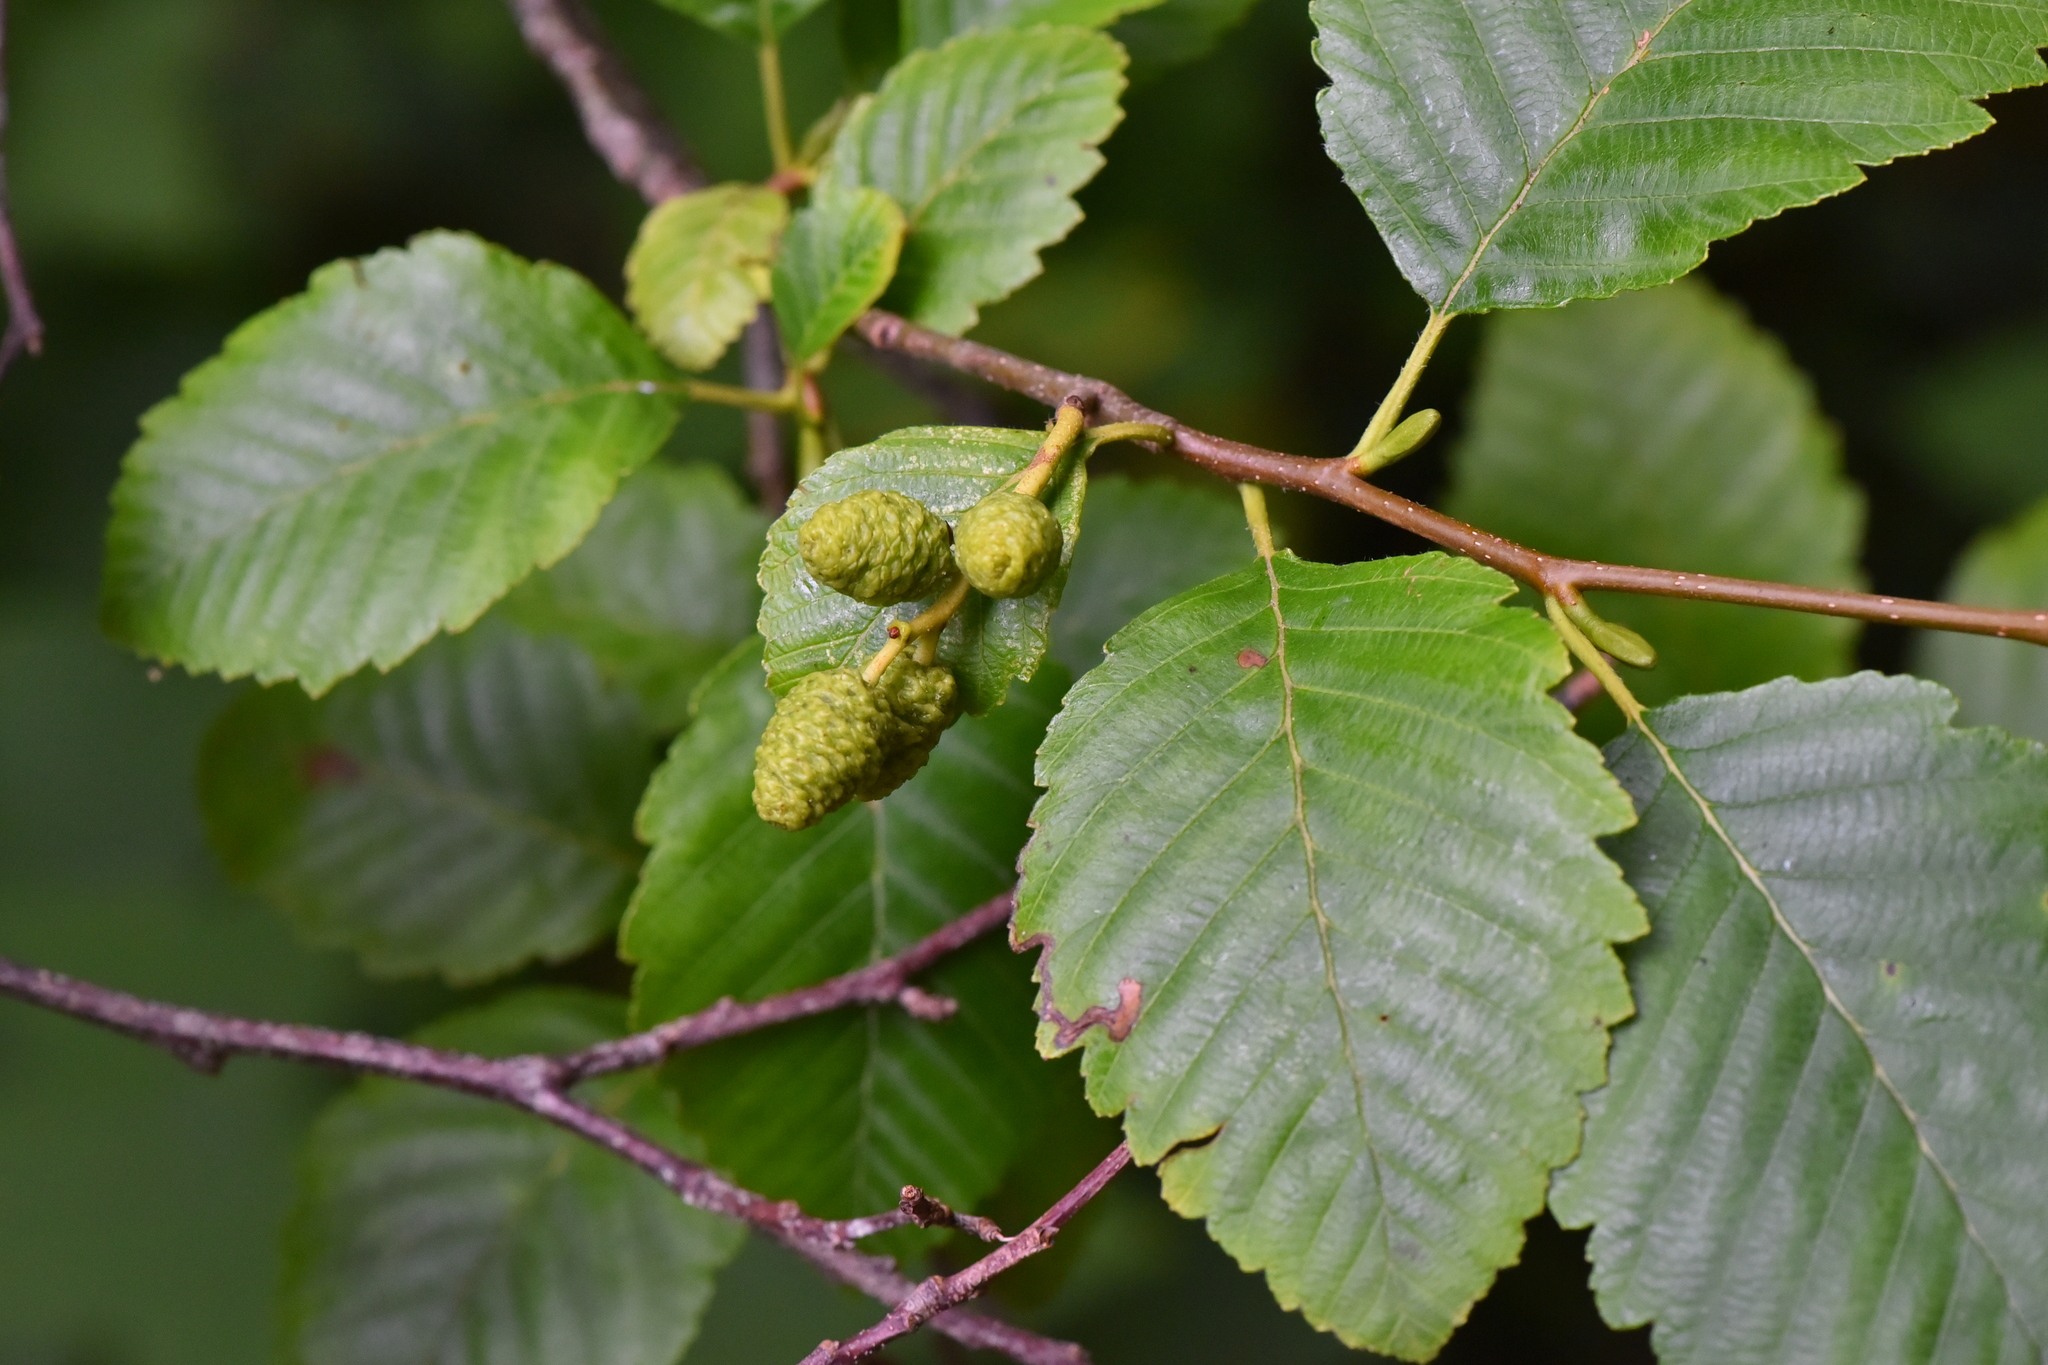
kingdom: Plantae
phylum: Tracheophyta
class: Magnoliopsida
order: Fagales
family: Betulaceae
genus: Alnus
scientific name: Alnus rubra
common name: Red alder
